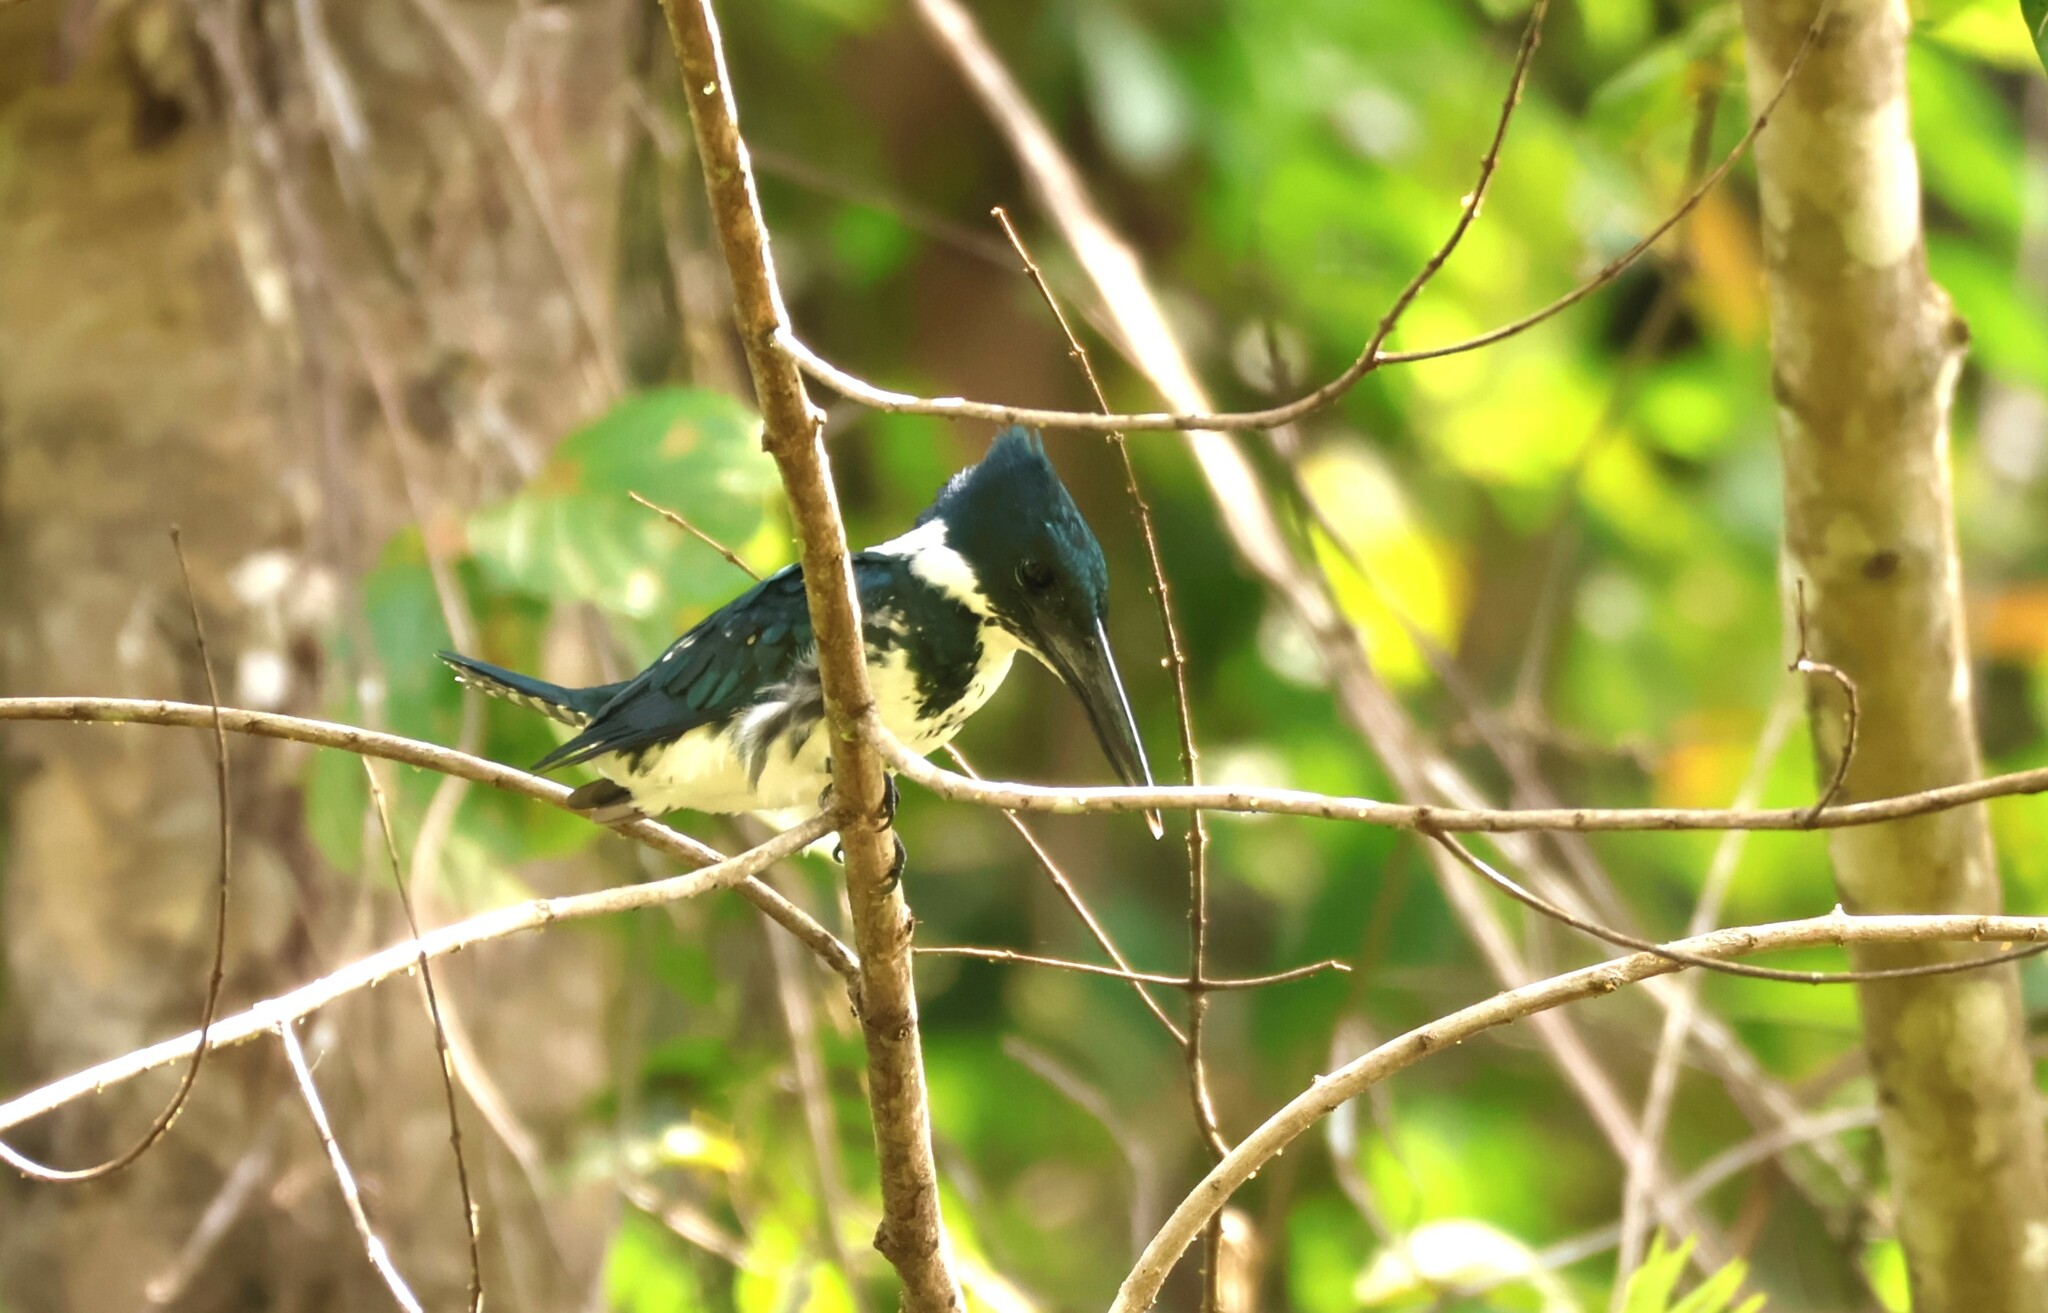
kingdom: Animalia
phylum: Chordata
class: Aves
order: Coraciiformes
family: Alcedinidae
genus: Chloroceryle
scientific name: Chloroceryle amazona
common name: Amazon kingfisher
